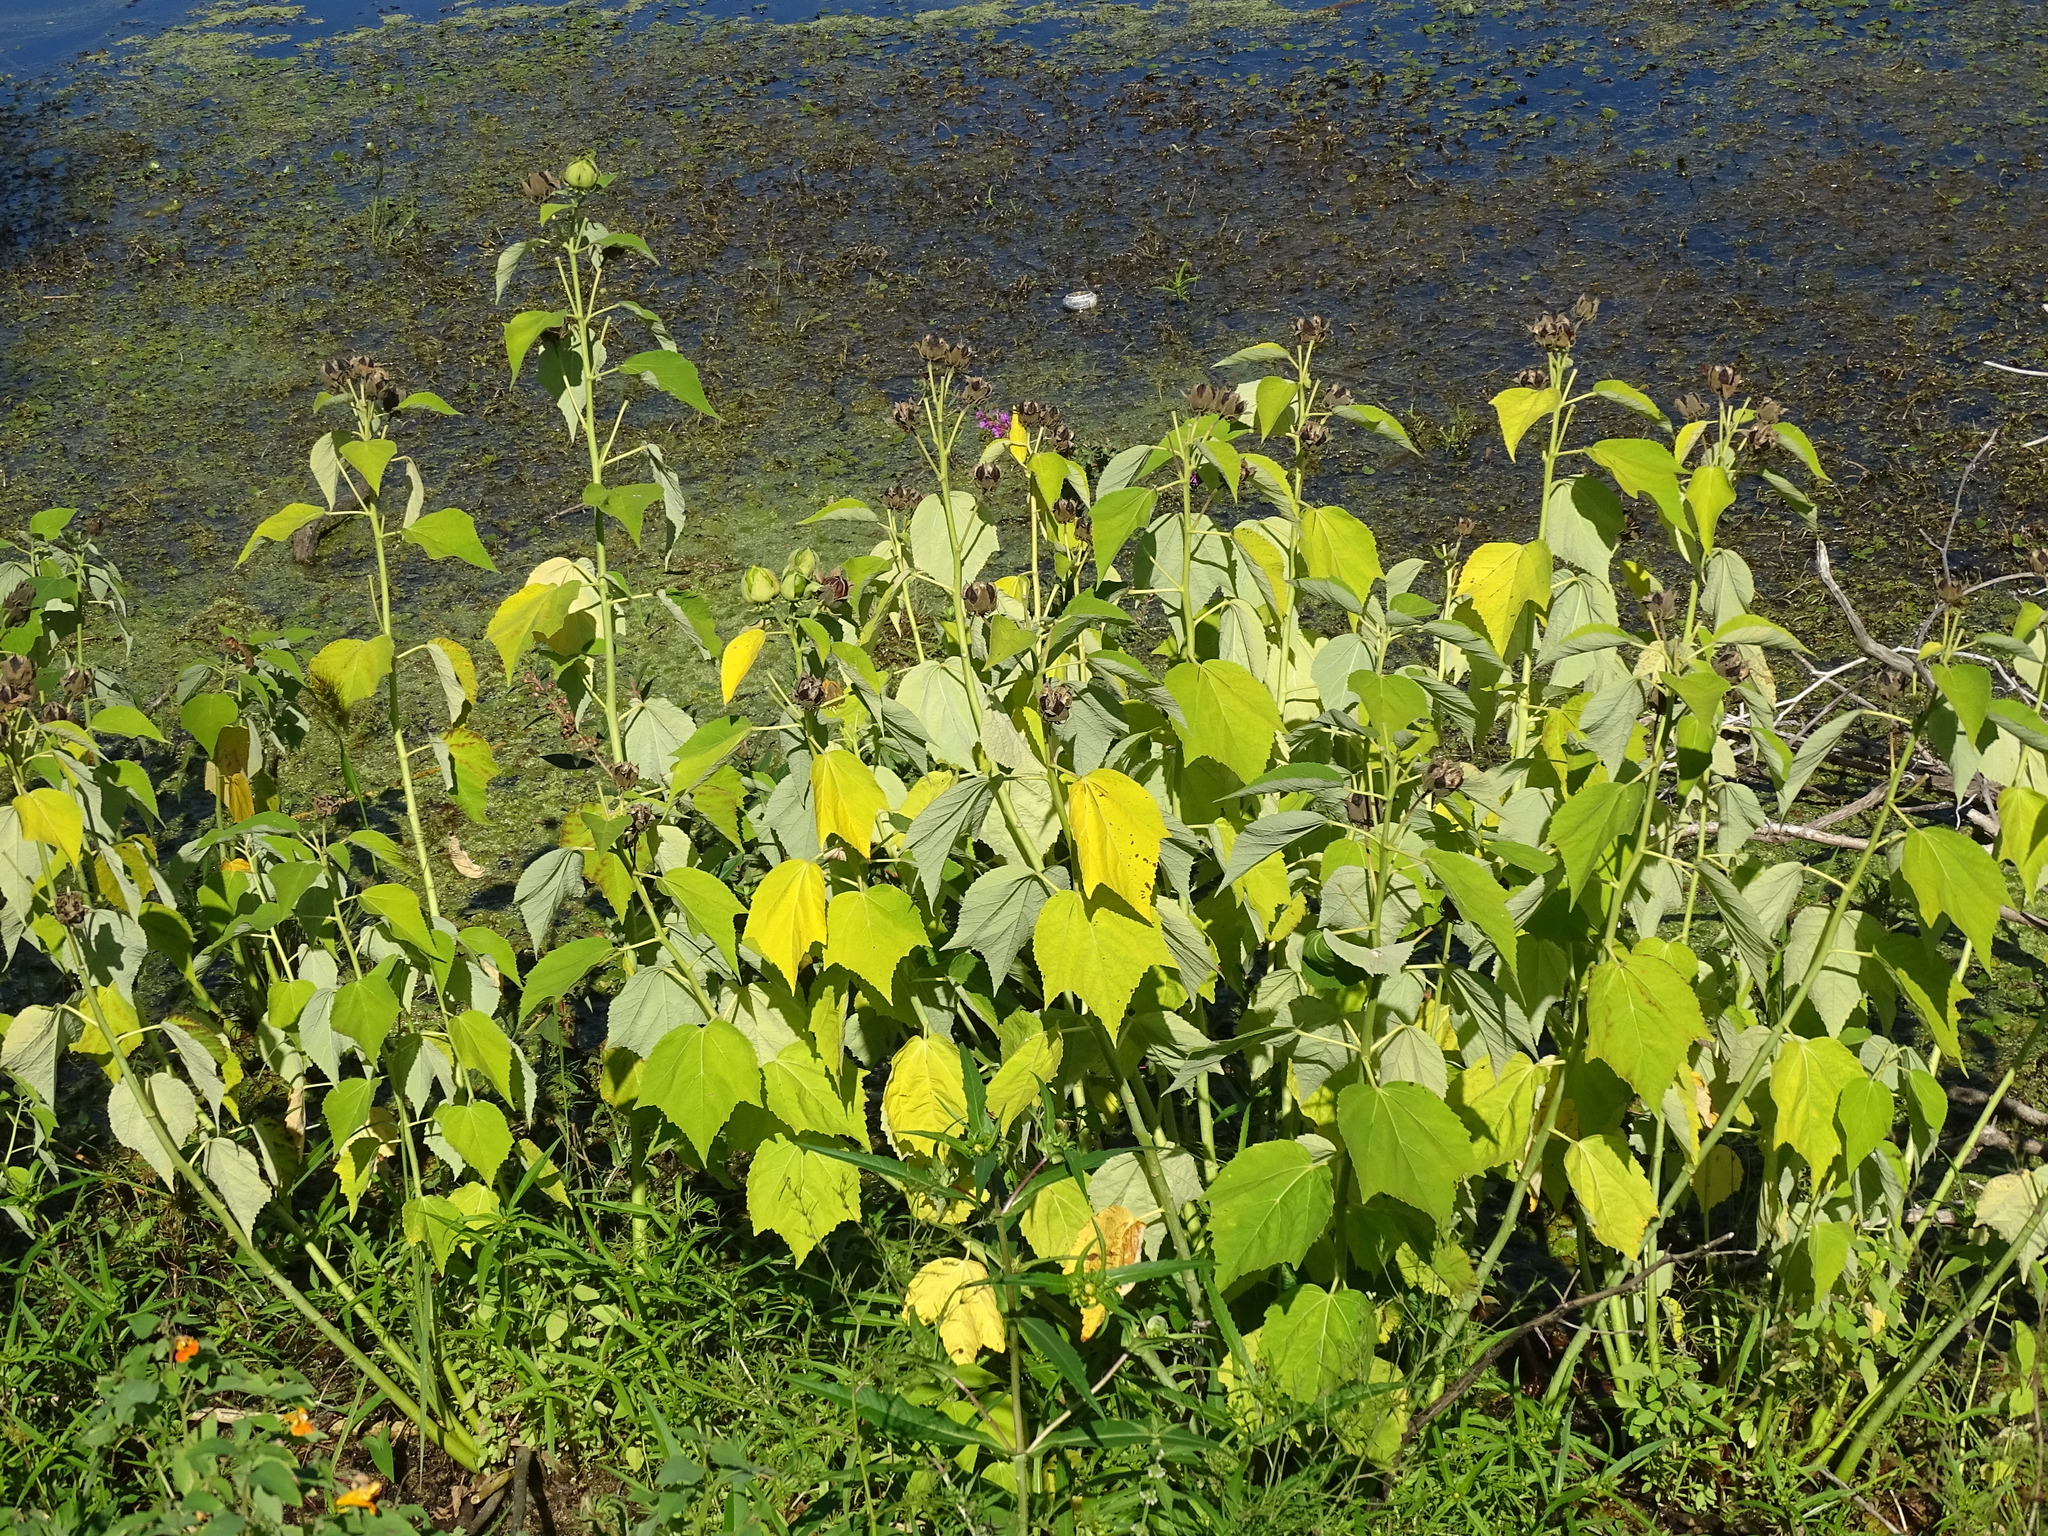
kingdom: Plantae
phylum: Tracheophyta
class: Magnoliopsida
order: Malvales
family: Malvaceae
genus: Hibiscus
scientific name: Hibiscus moscheutos
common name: Common rose-mallow
